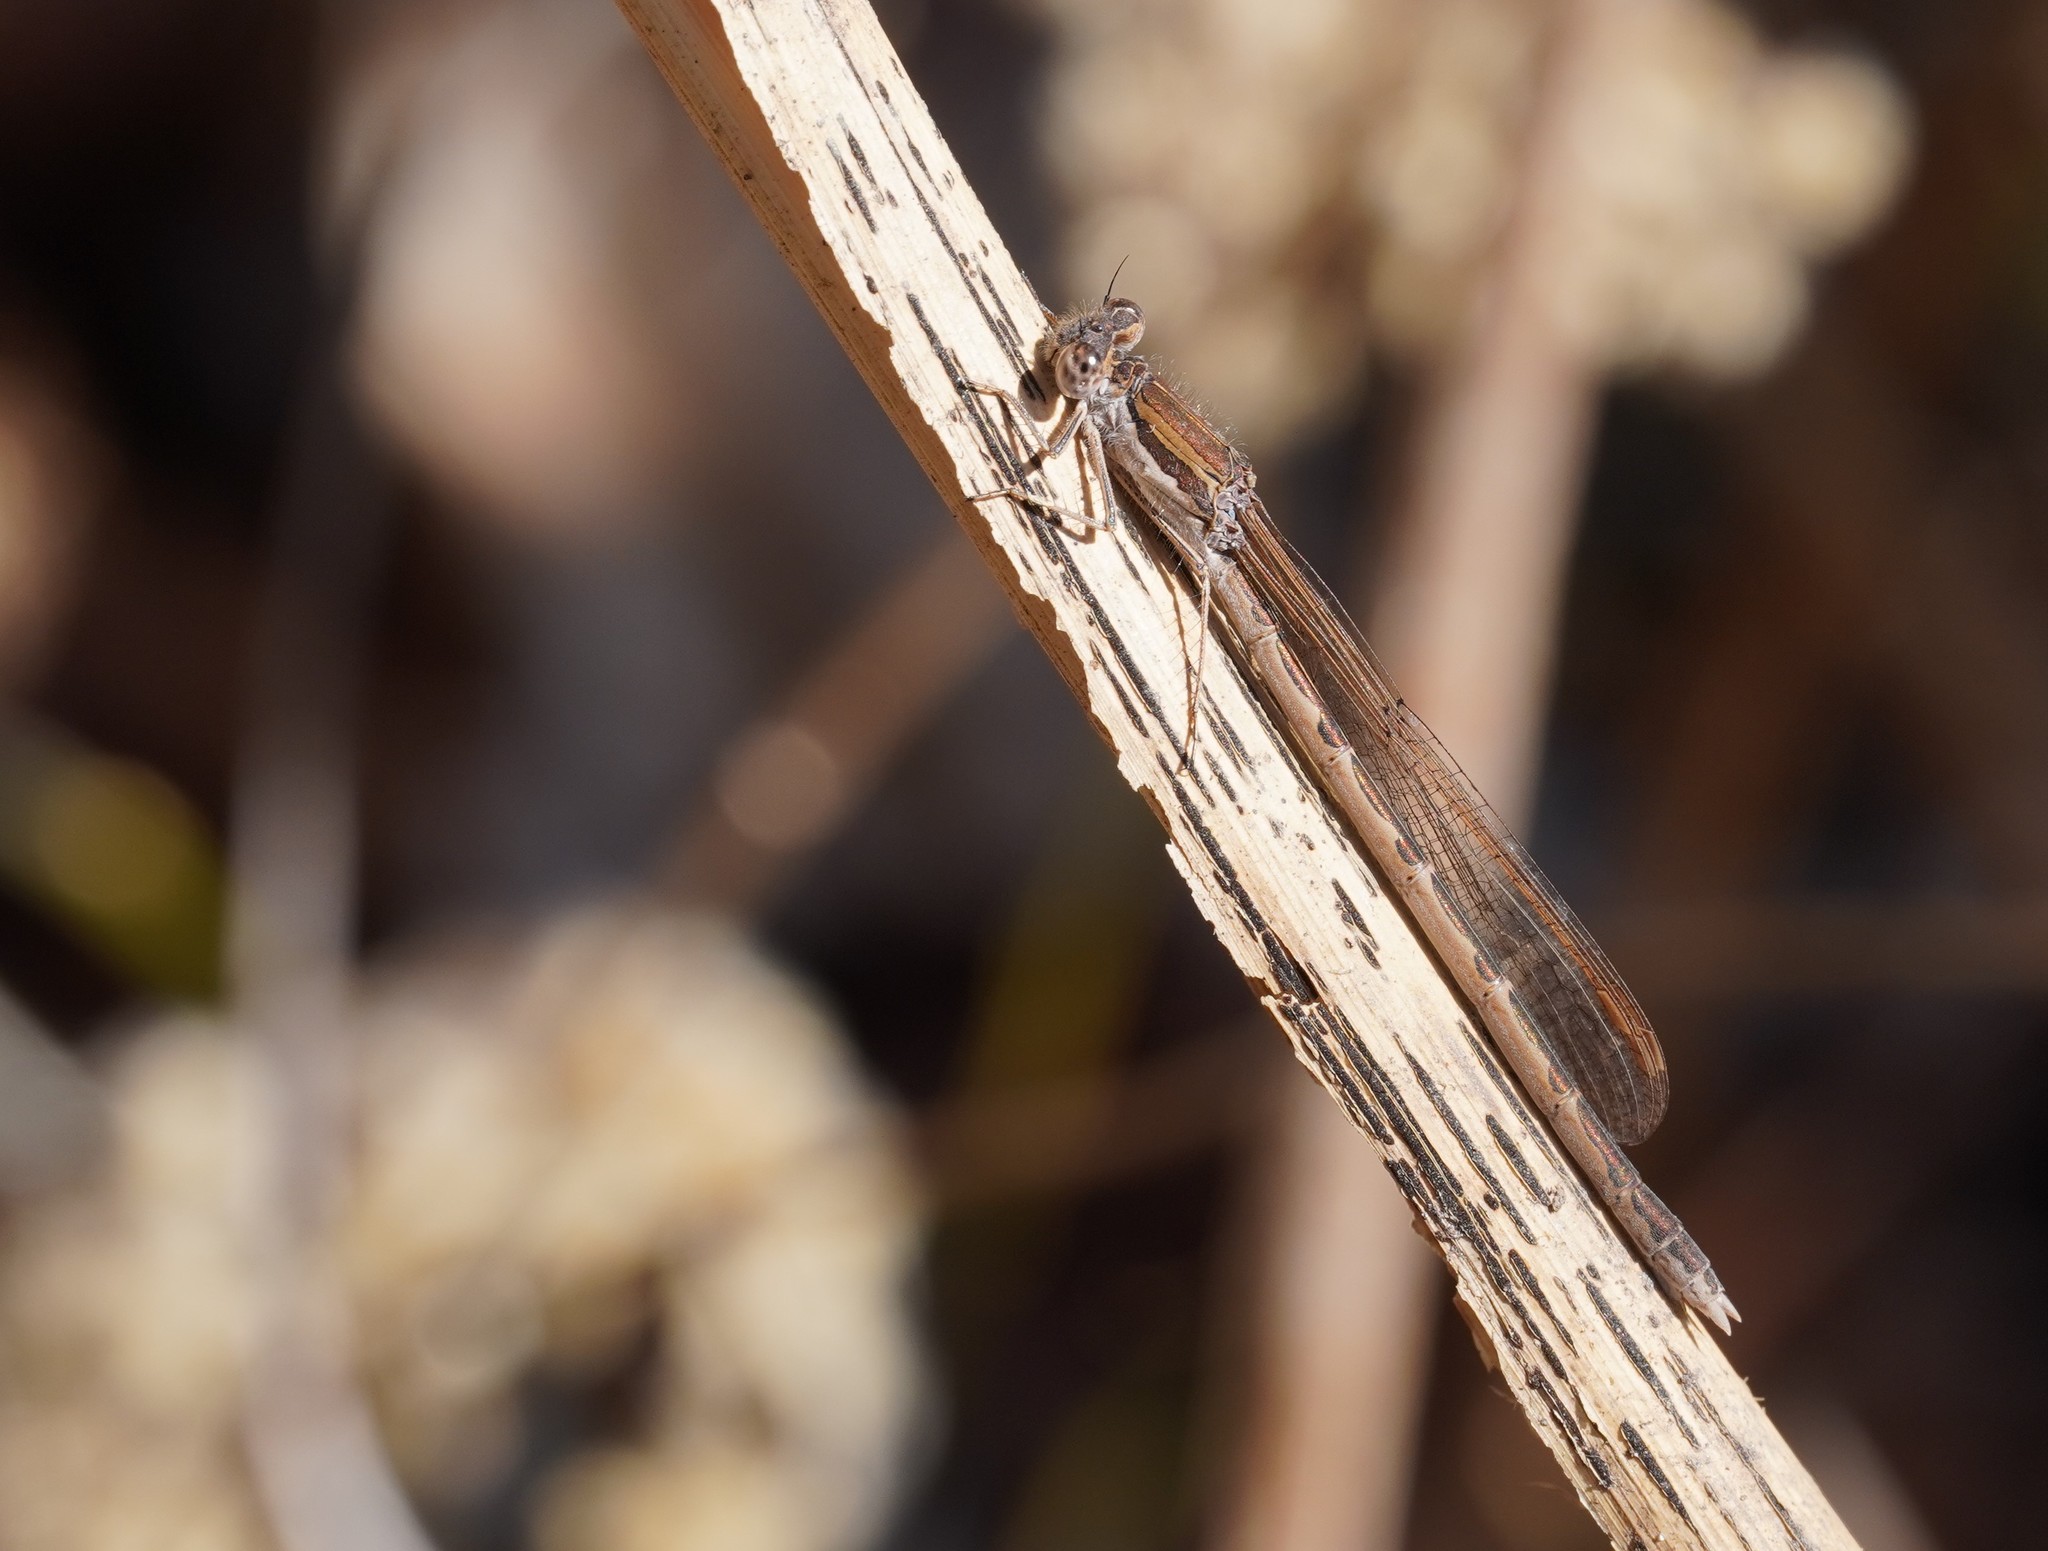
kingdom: Animalia
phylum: Arthropoda
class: Insecta
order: Odonata
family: Lestidae
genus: Sympecma
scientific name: Sympecma fusca
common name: Common winter damsel
